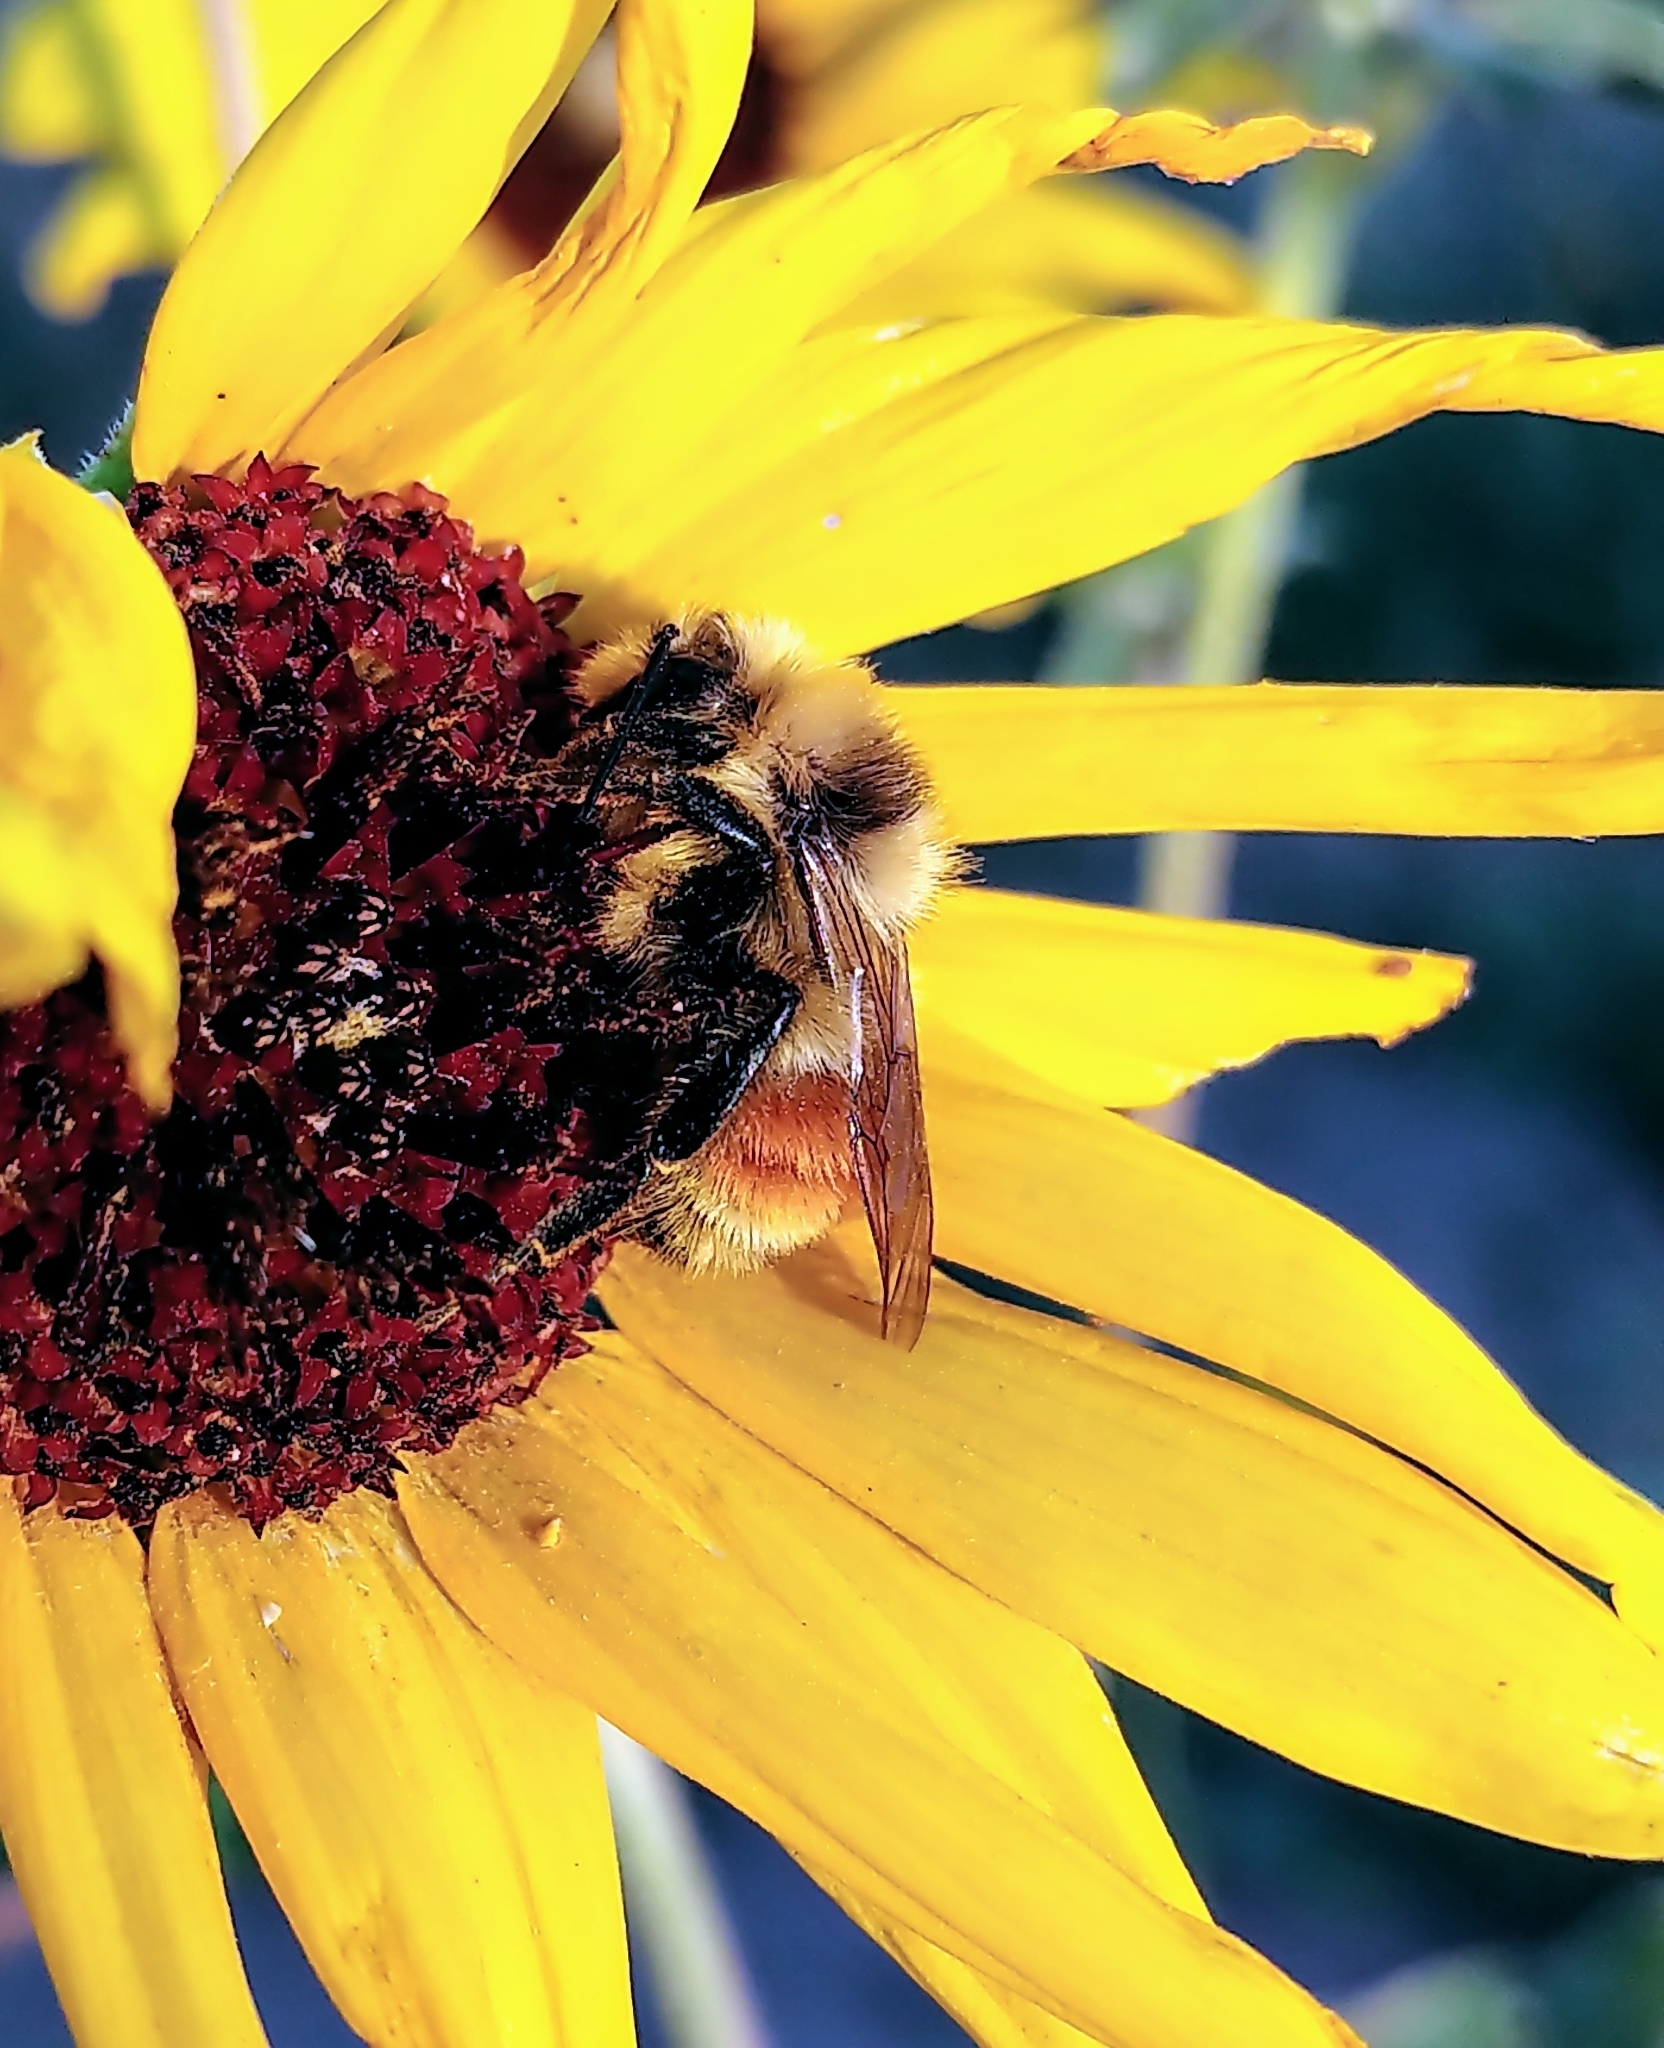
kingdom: Animalia
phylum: Arthropoda
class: Insecta
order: Hymenoptera
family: Apidae
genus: Bombus
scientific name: Bombus huntii
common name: Hunt bumble bee
